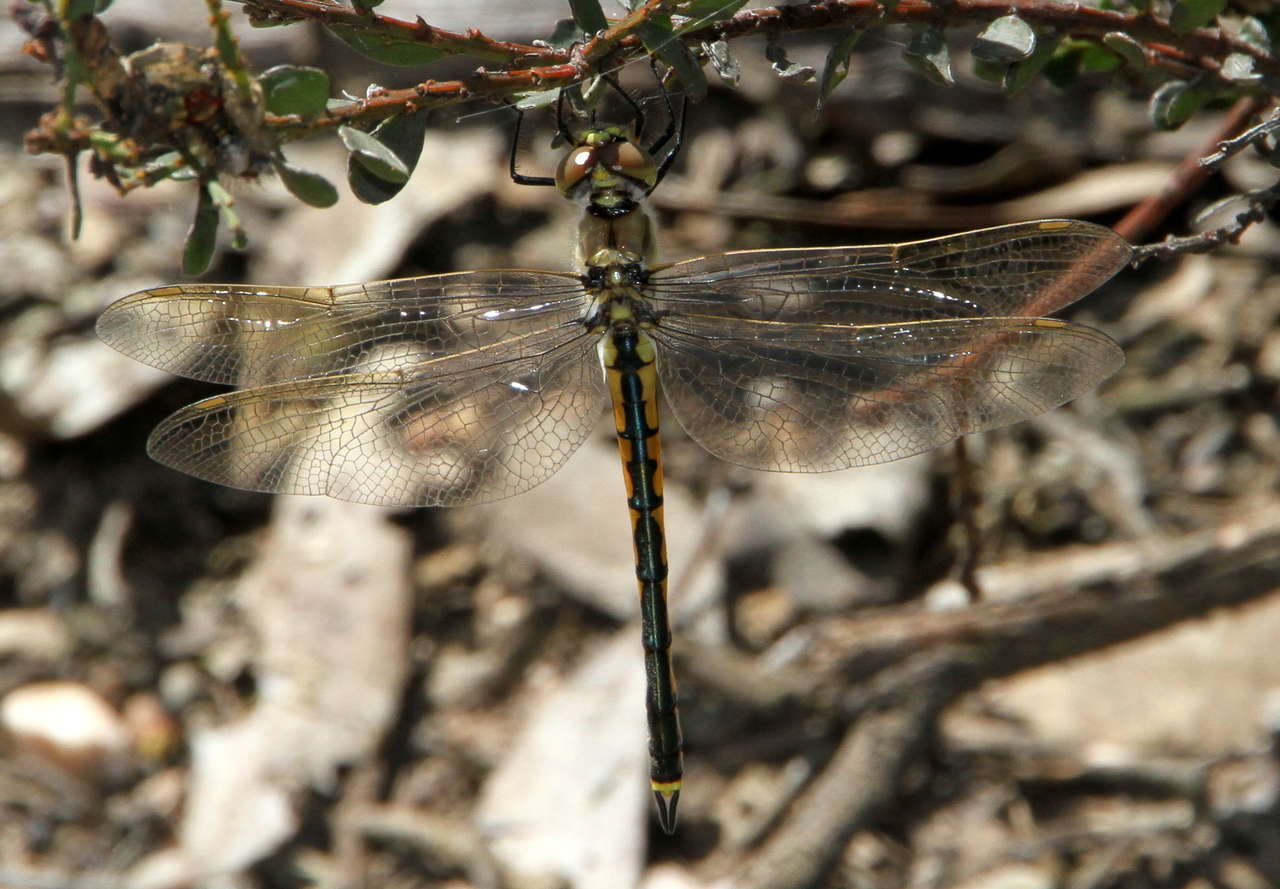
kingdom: Animalia
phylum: Arthropoda
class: Insecta
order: Odonata
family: Corduliidae
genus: Hemicordulia
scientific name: Hemicordulia tau
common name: Tau emerald
